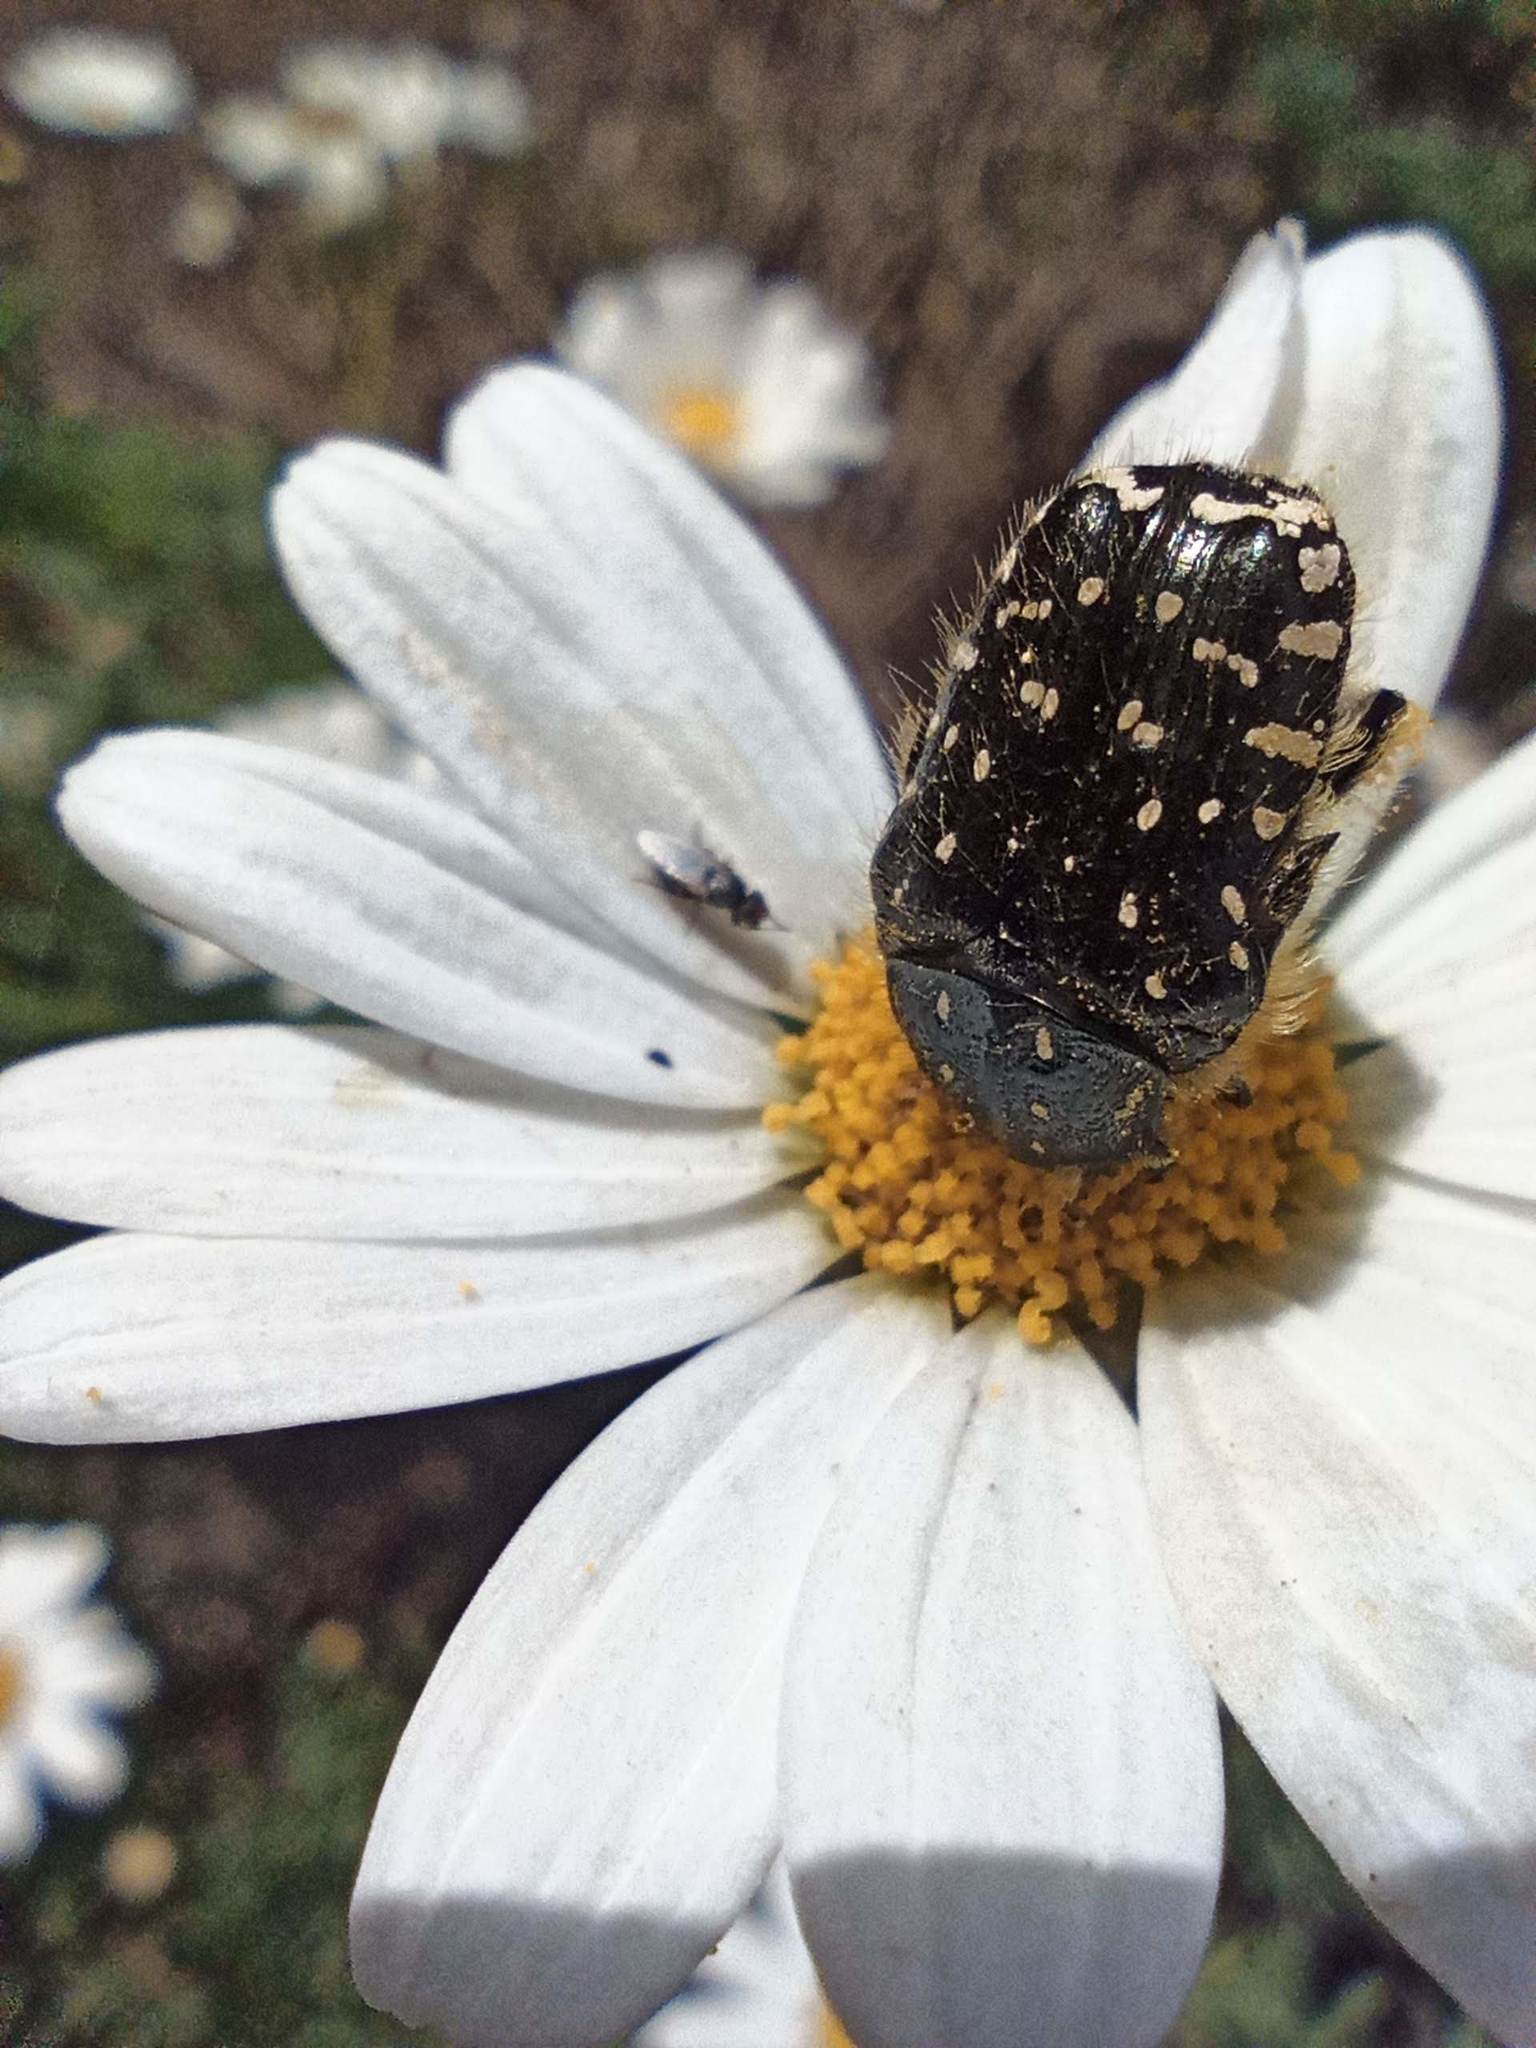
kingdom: Animalia
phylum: Arthropoda
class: Insecta
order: Coleoptera
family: Scarabaeidae
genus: Oxythyrea
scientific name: Oxythyrea funesta
